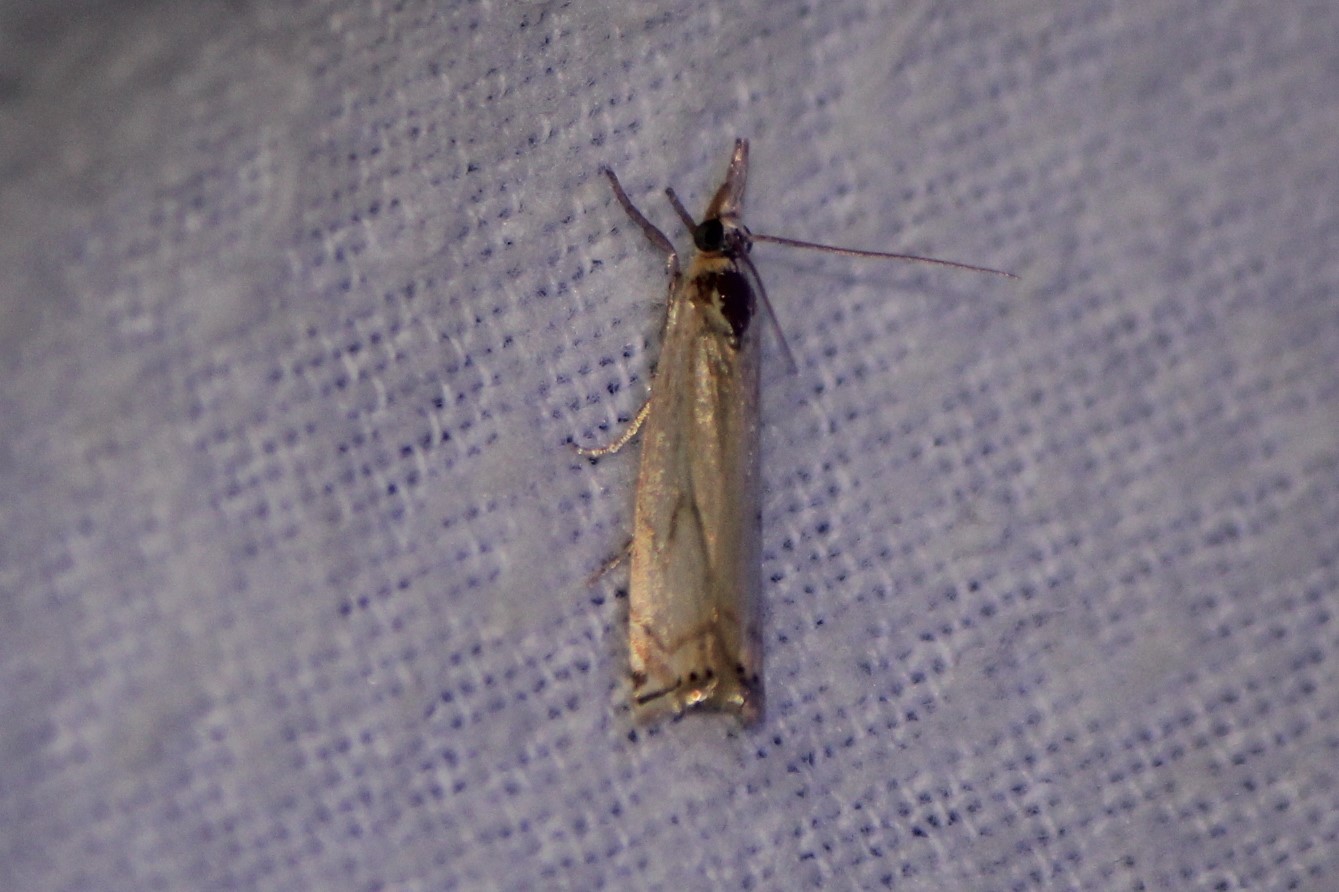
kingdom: Animalia
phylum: Arthropoda
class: Insecta
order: Lepidoptera
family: Crambidae
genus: Crambus
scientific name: Crambus albellus
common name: Small white grass-veneer
